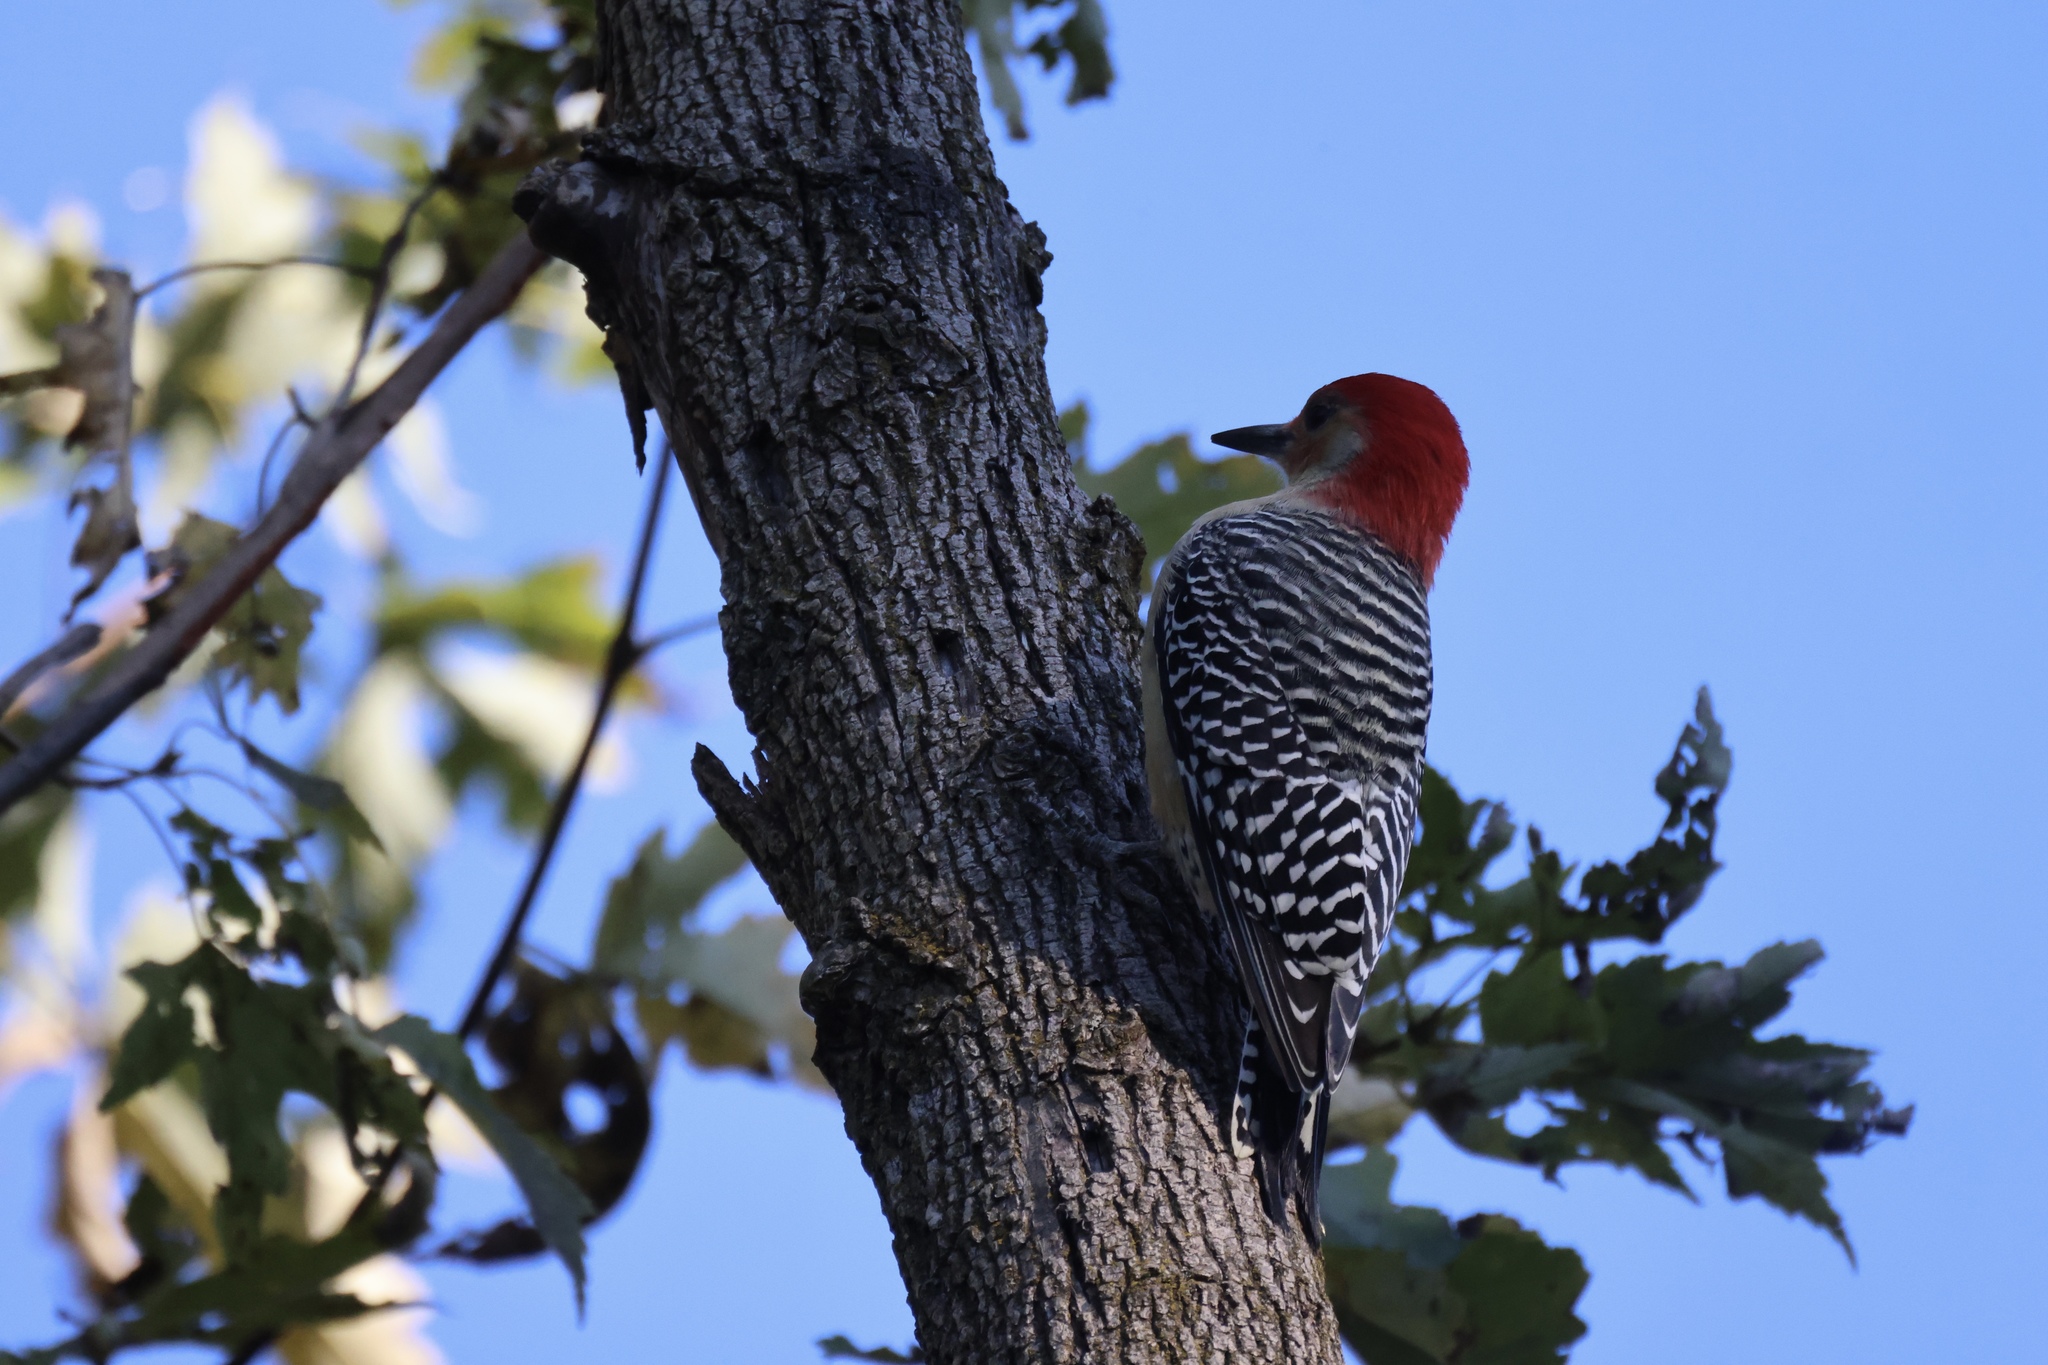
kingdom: Animalia
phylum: Chordata
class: Aves
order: Piciformes
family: Picidae
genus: Melanerpes
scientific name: Melanerpes carolinus
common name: Red-bellied woodpecker
